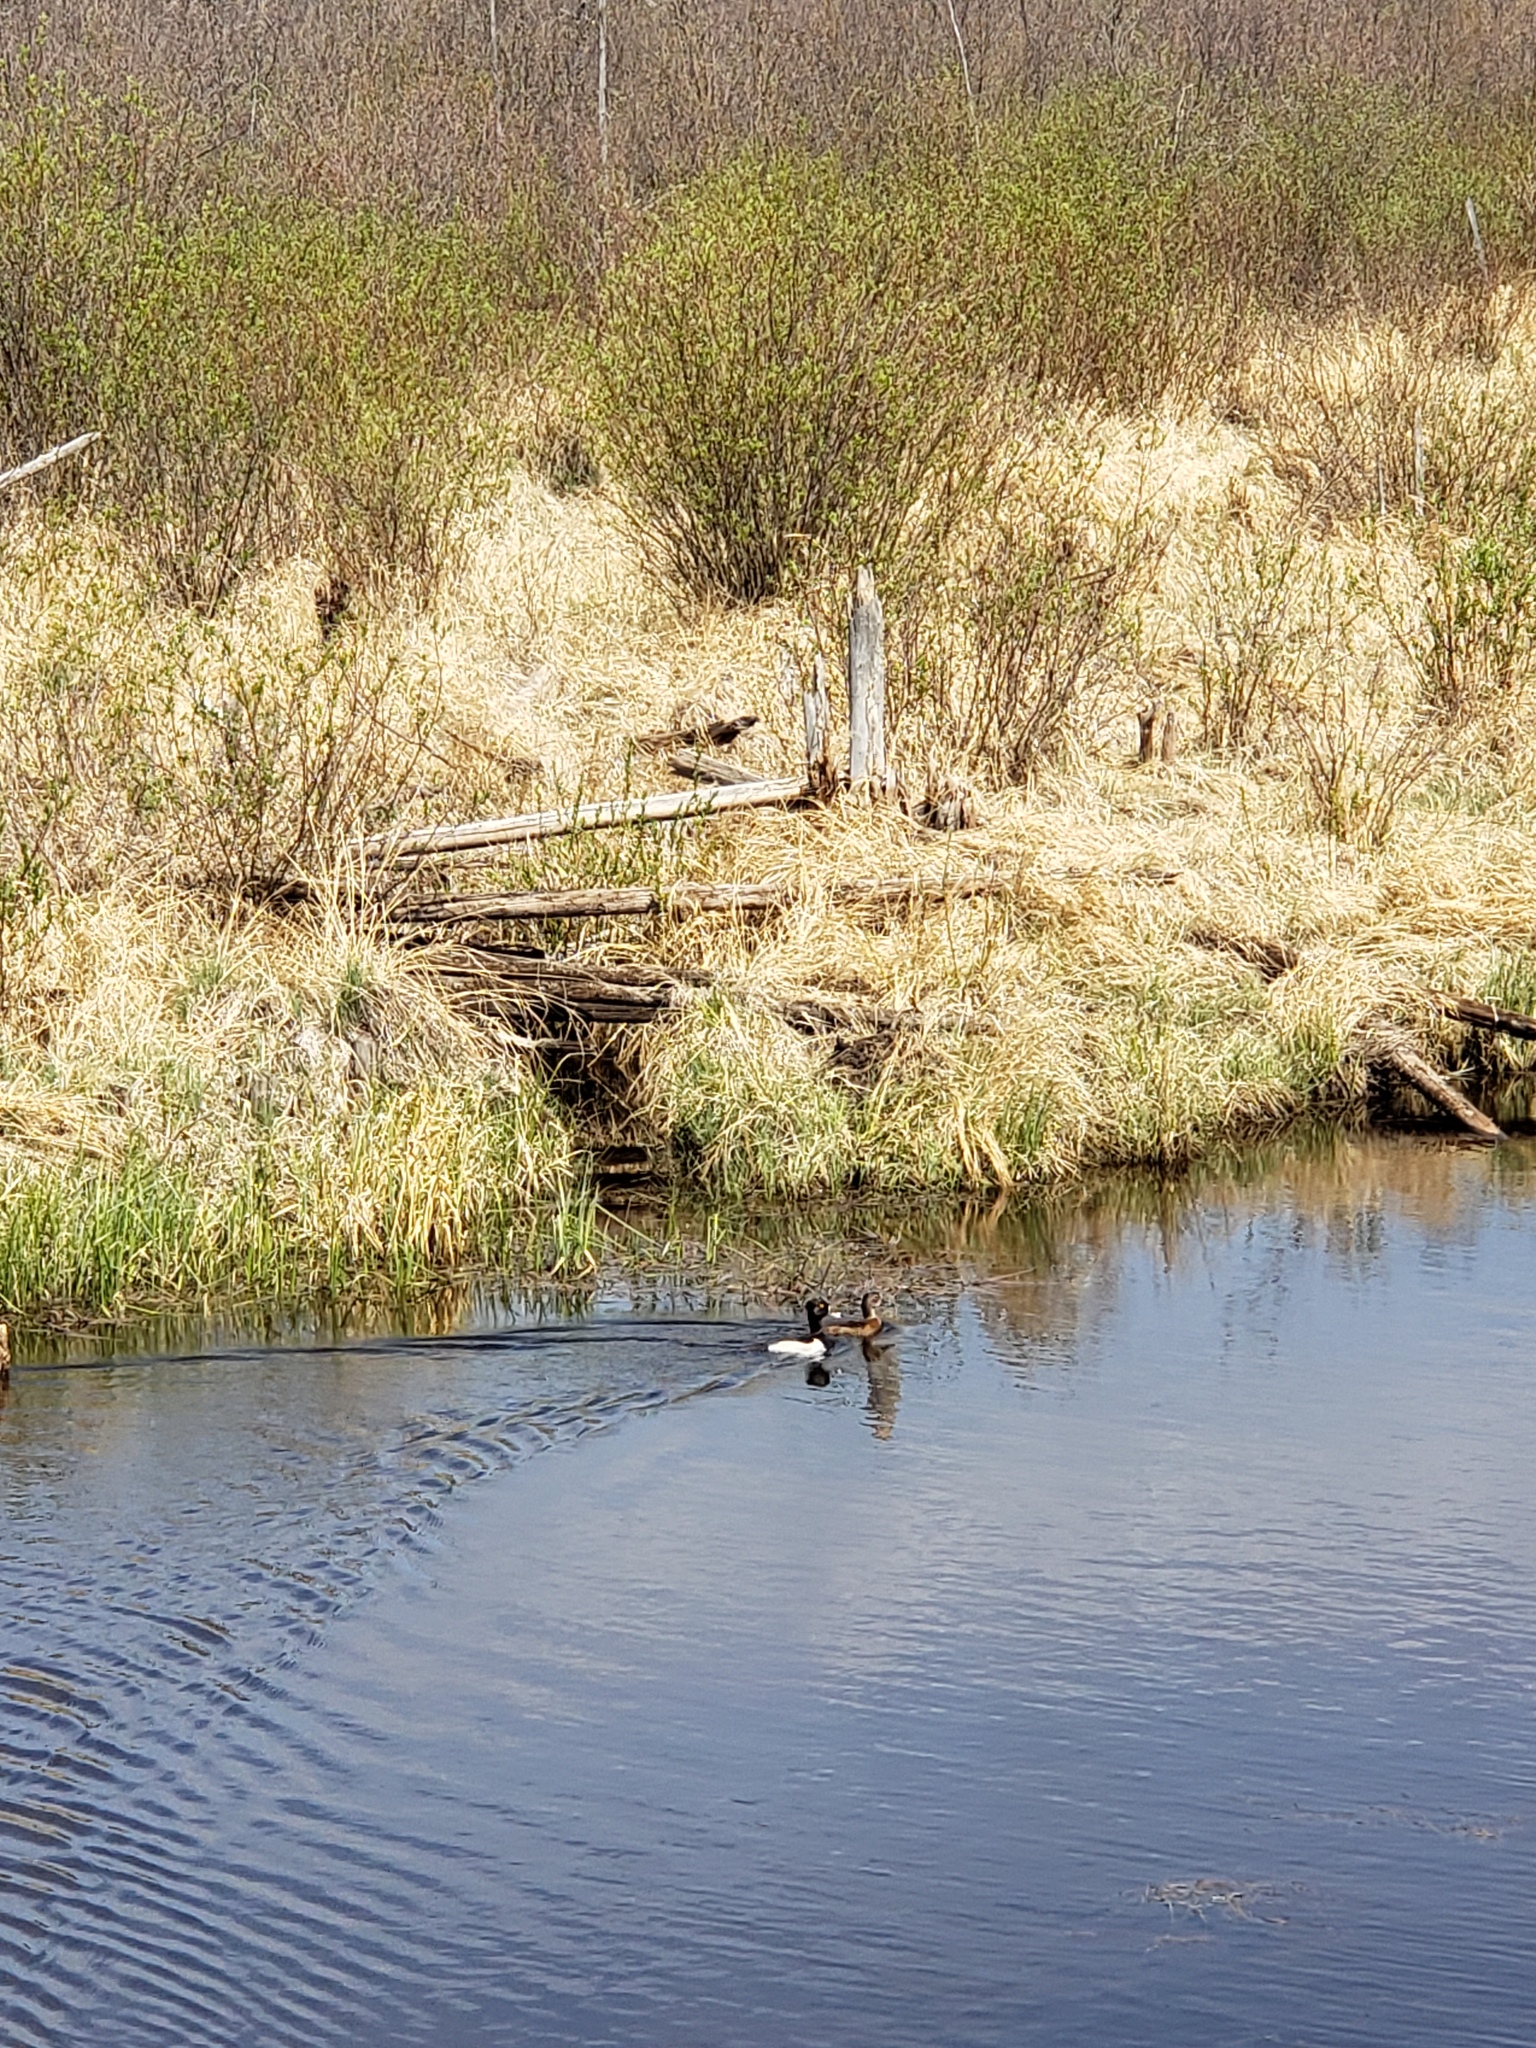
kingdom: Animalia
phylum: Chordata
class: Aves
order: Anseriformes
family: Anatidae
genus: Aythya
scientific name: Aythya collaris
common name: Ring-necked duck
